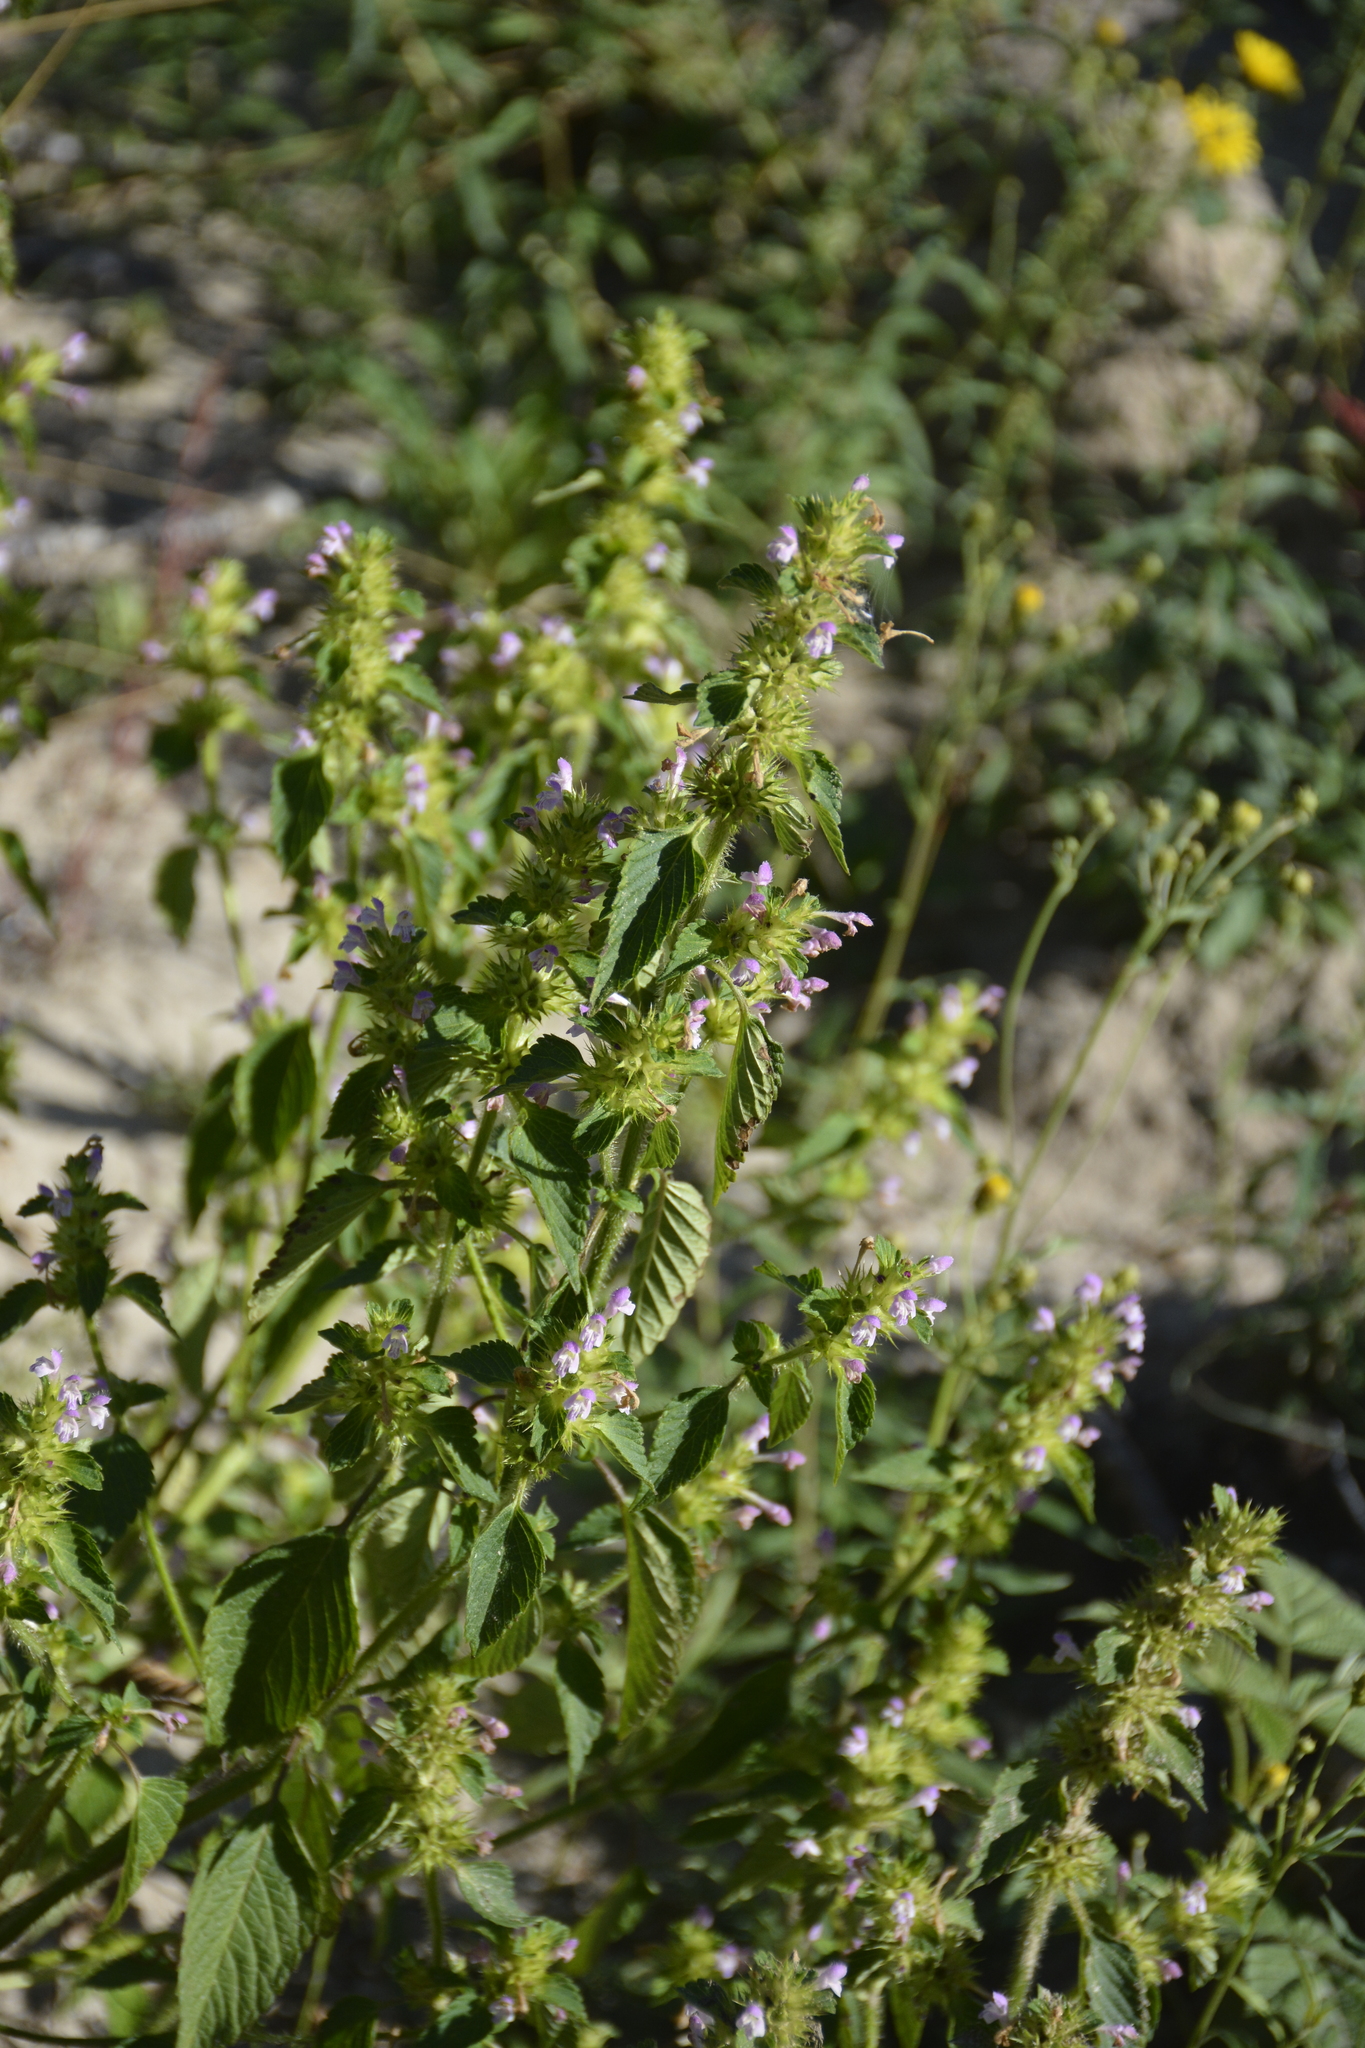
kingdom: Plantae
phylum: Tracheophyta
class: Magnoliopsida
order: Lamiales
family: Lamiaceae
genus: Galeopsis
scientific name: Galeopsis bifida
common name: Bifid hemp-nettle
